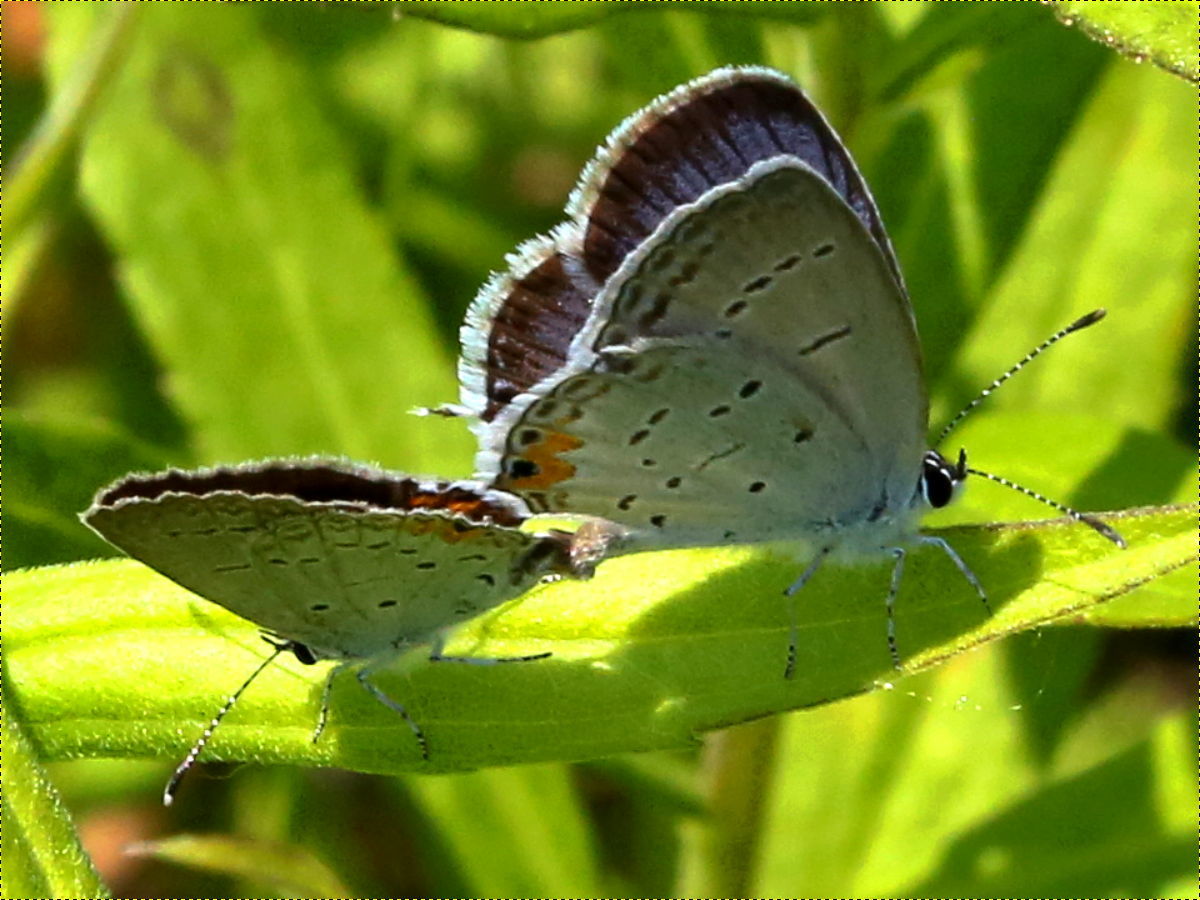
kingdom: Animalia
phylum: Arthropoda
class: Insecta
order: Lepidoptera
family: Lycaenidae
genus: Elkalyce
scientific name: Elkalyce comyntas
